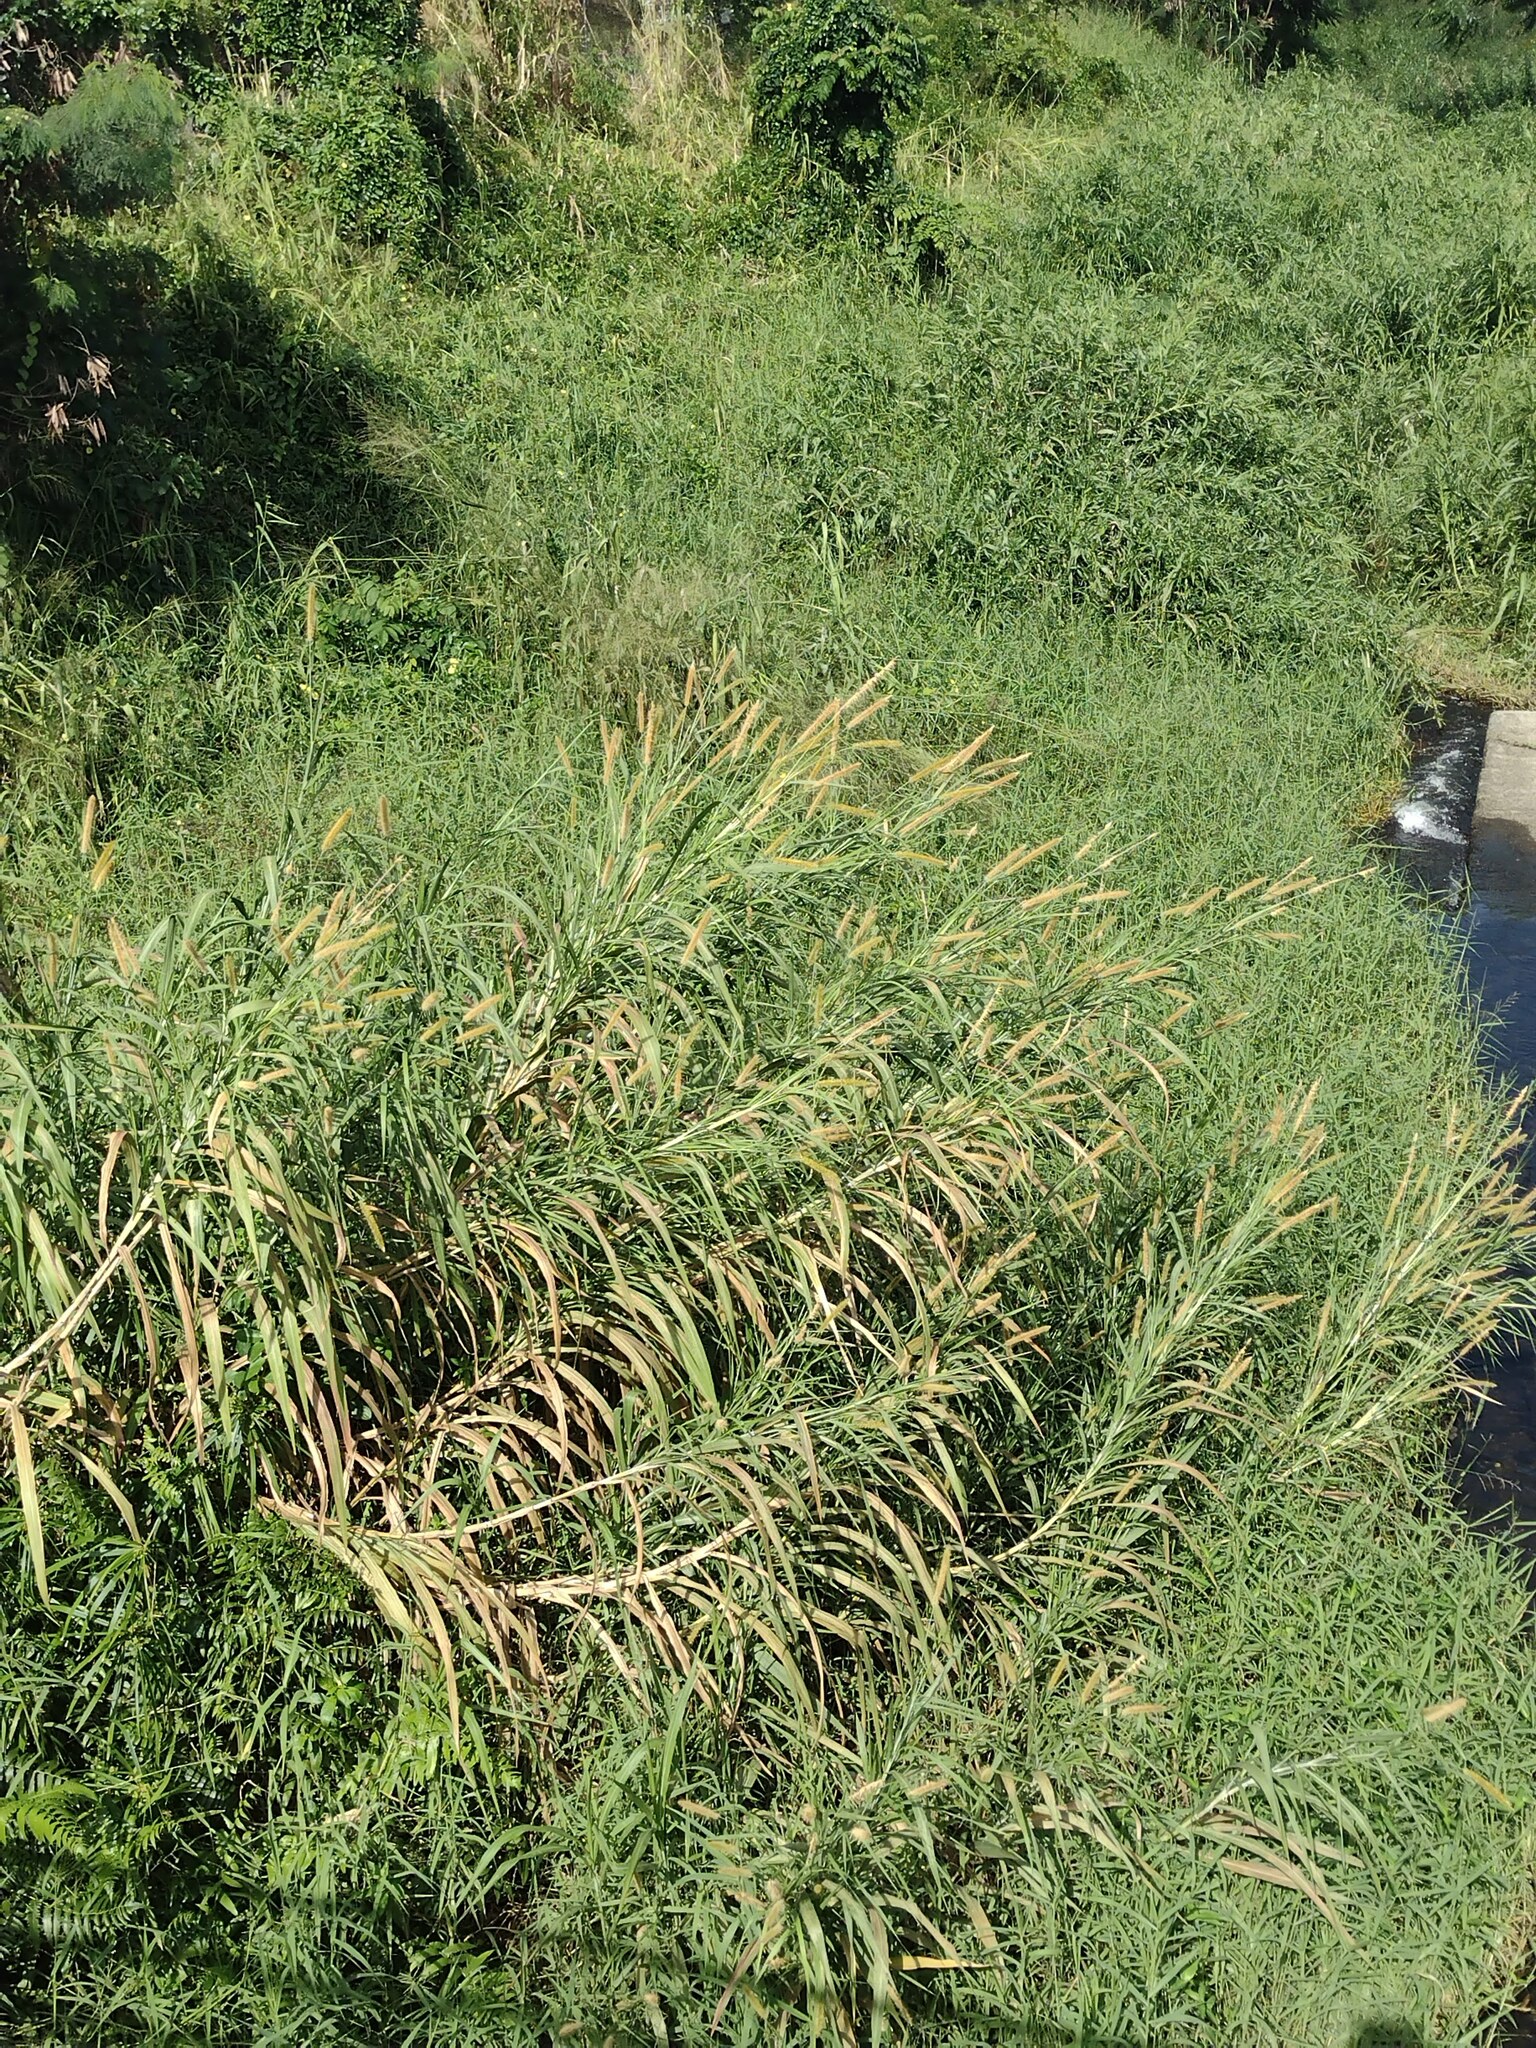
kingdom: Plantae
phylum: Tracheophyta
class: Liliopsida
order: Poales
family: Poaceae
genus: Cenchrus
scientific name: Cenchrus purpureus
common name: Elephant grass
